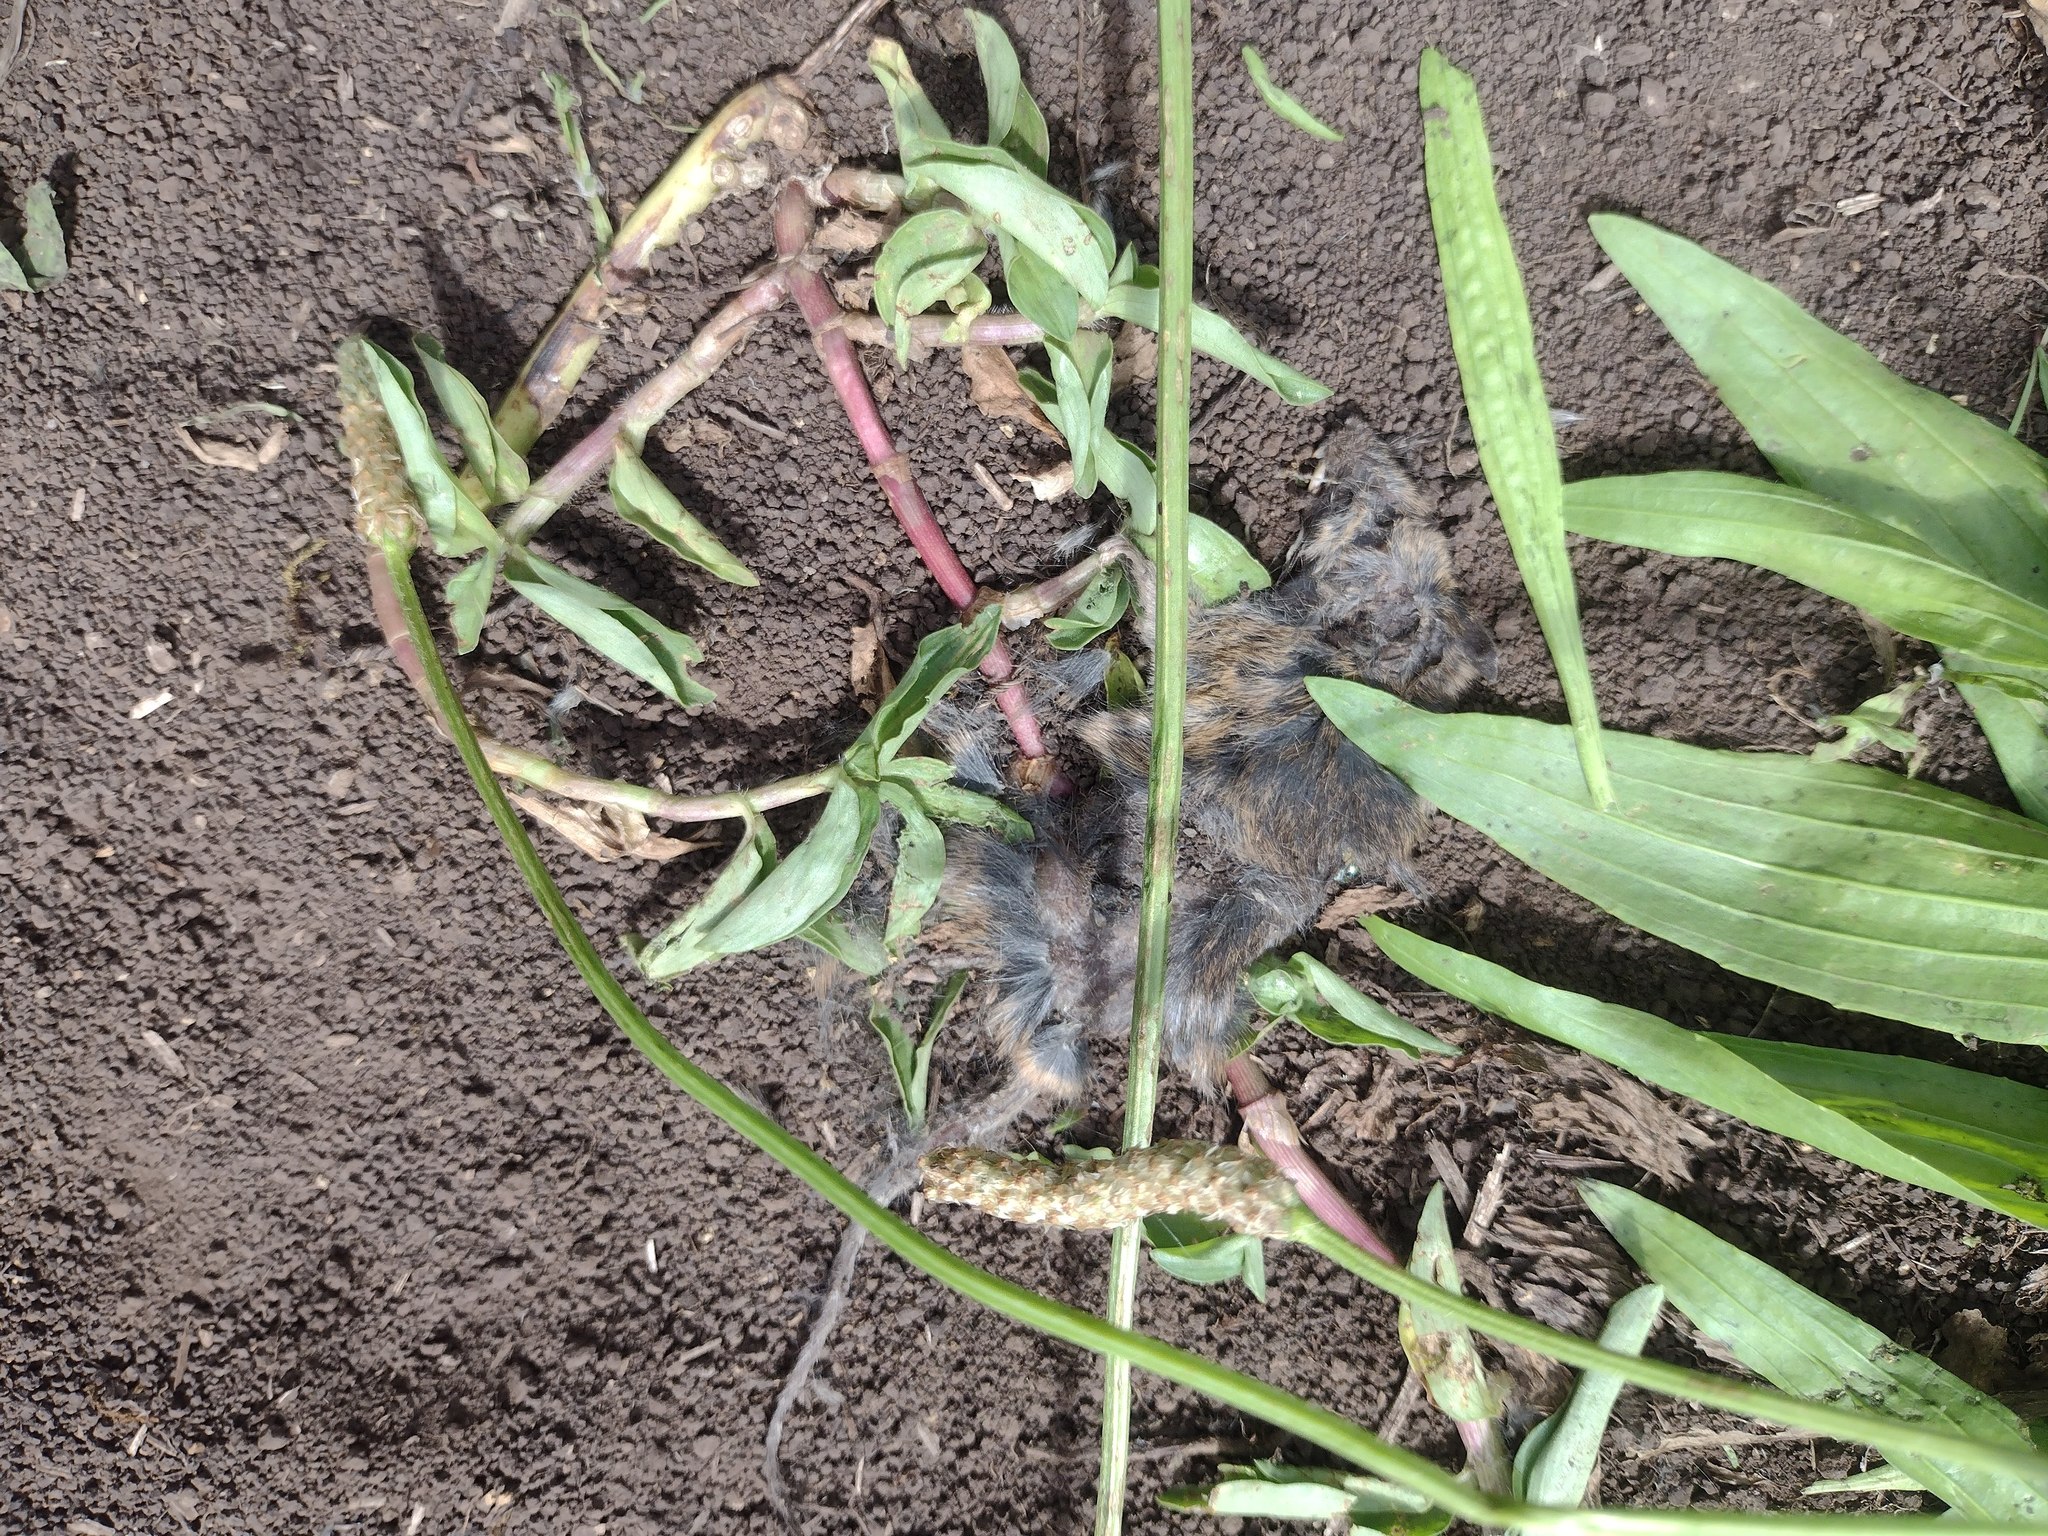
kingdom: Animalia
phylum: Chordata
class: Mammalia
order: Rodentia
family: Muridae
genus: Mus
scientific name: Mus musculus
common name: House mouse
